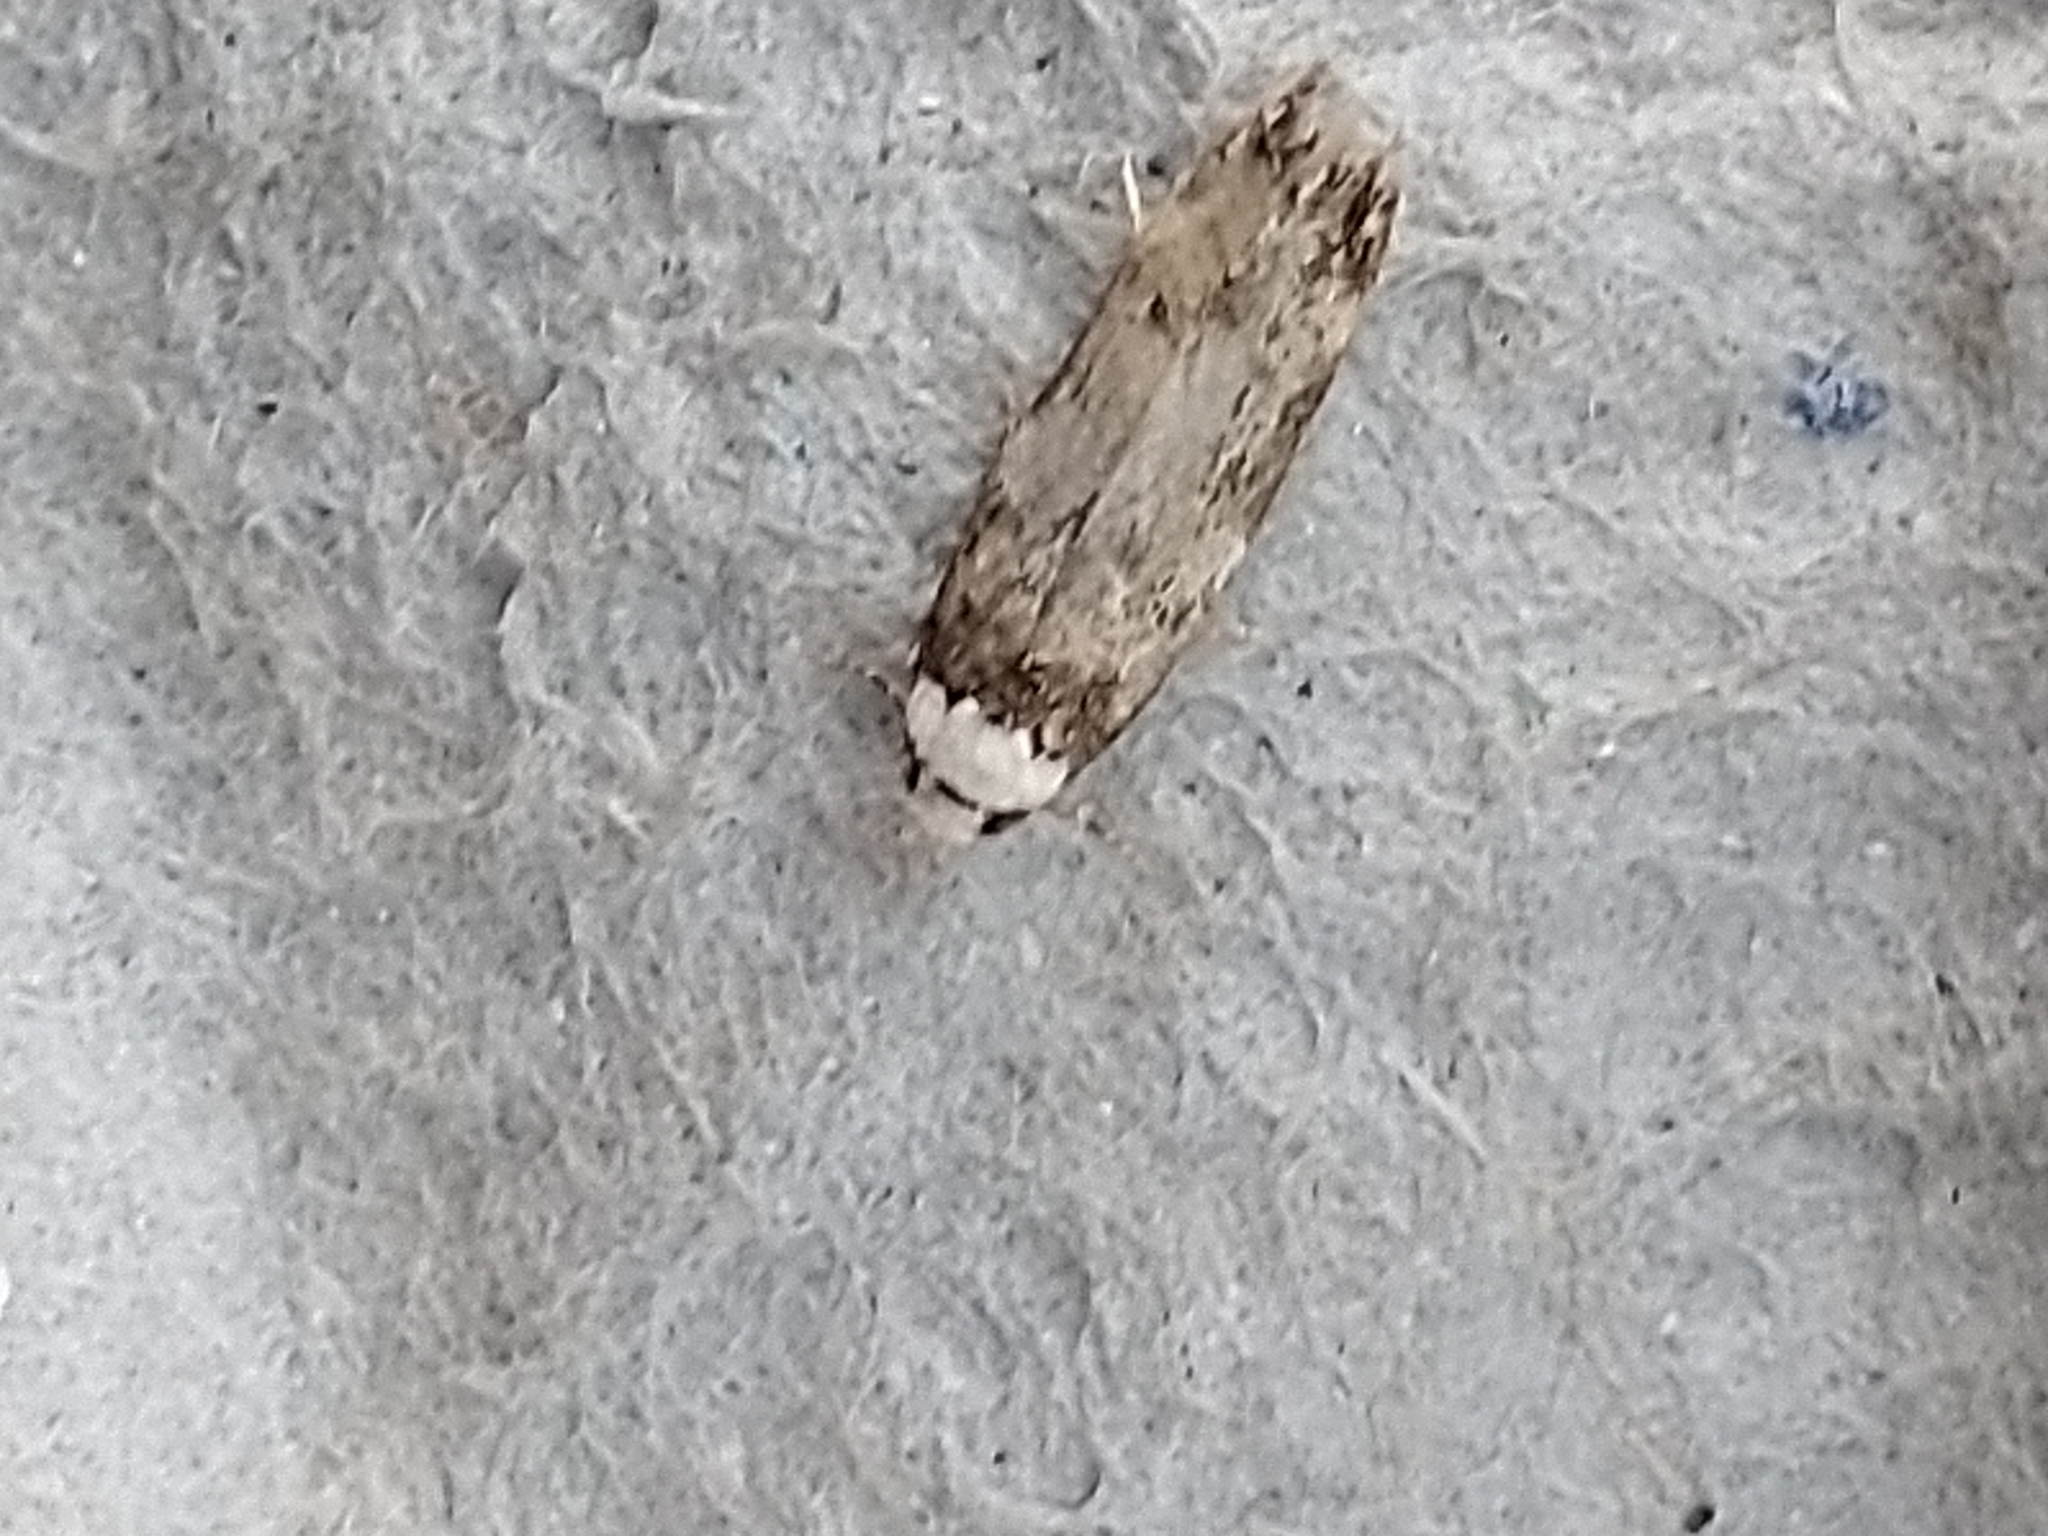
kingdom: Animalia
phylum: Arthropoda
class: Insecta
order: Lepidoptera
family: Oecophoridae
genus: Endrosis
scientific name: Endrosis sarcitrella
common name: White-shouldered house moth
